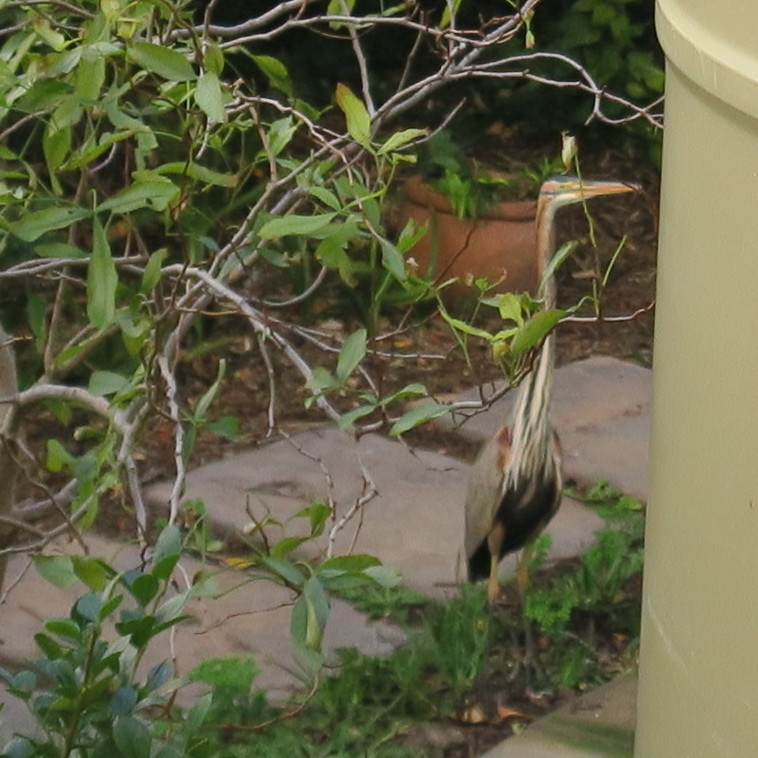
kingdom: Animalia
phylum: Chordata
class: Aves
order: Pelecaniformes
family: Ardeidae
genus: Ardea
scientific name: Ardea purpurea
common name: Purple heron
